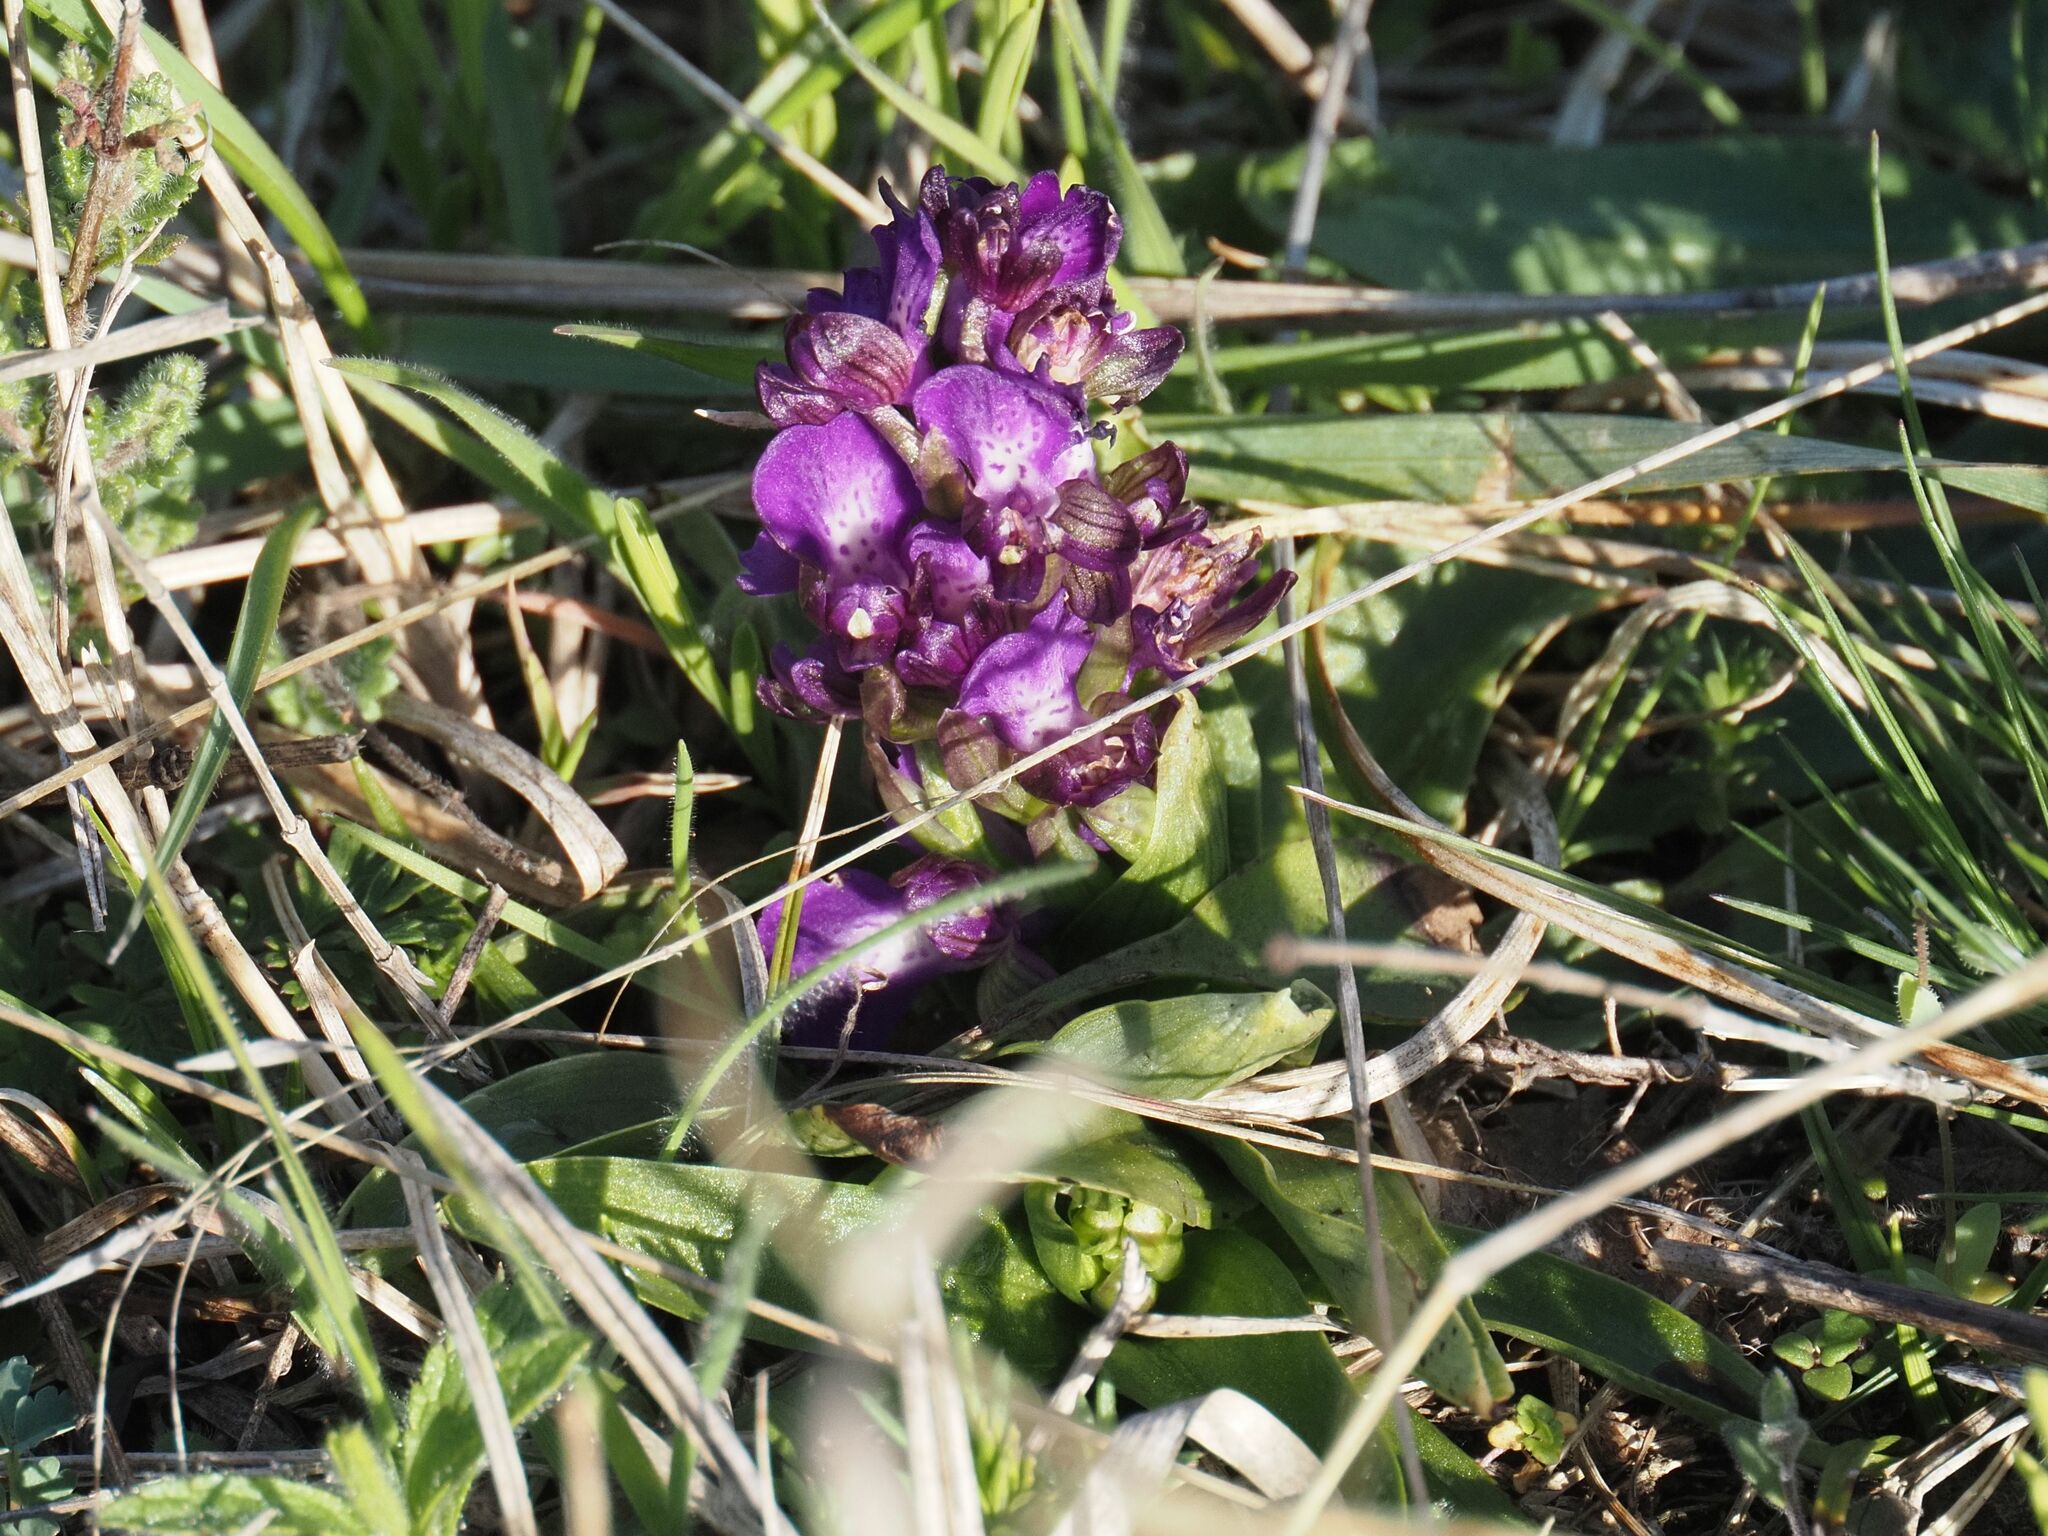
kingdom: Plantae
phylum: Tracheophyta
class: Liliopsida
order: Asparagales
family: Orchidaceae
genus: Anacamptis
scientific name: Anacamptis morio
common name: Green-winged orchid
